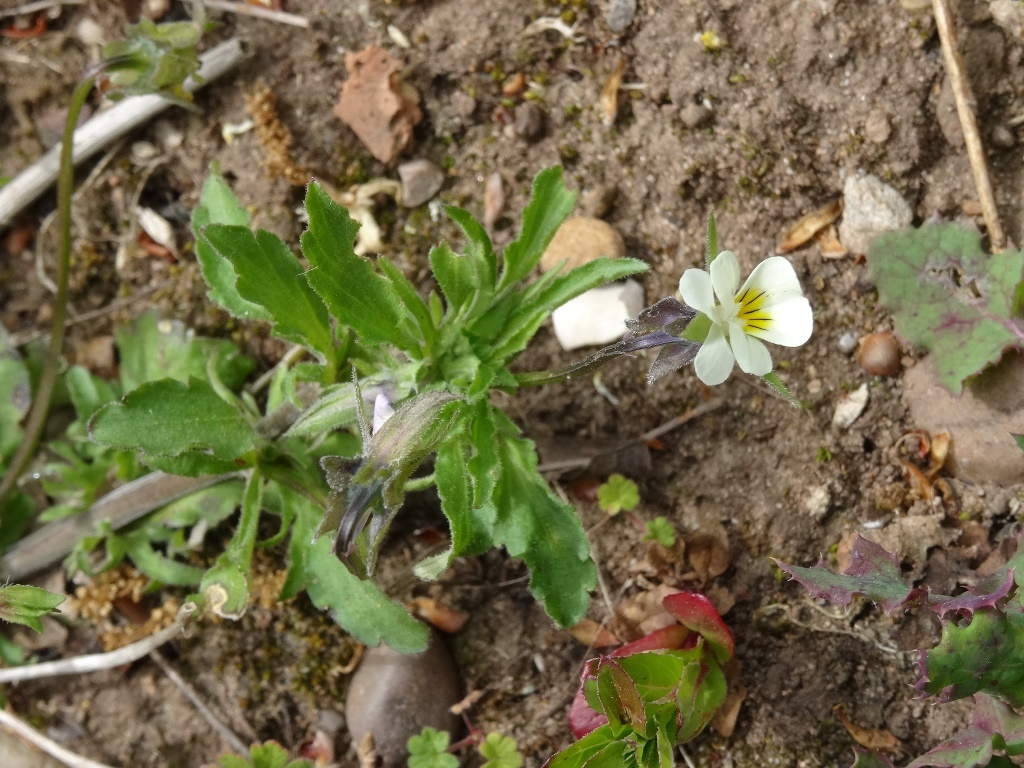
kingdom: Plantae
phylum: Tracheophyta
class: Magnoliopsida
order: Malpighiales
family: Violaceae
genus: Viola
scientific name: Viola arvensis
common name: Field pansy
